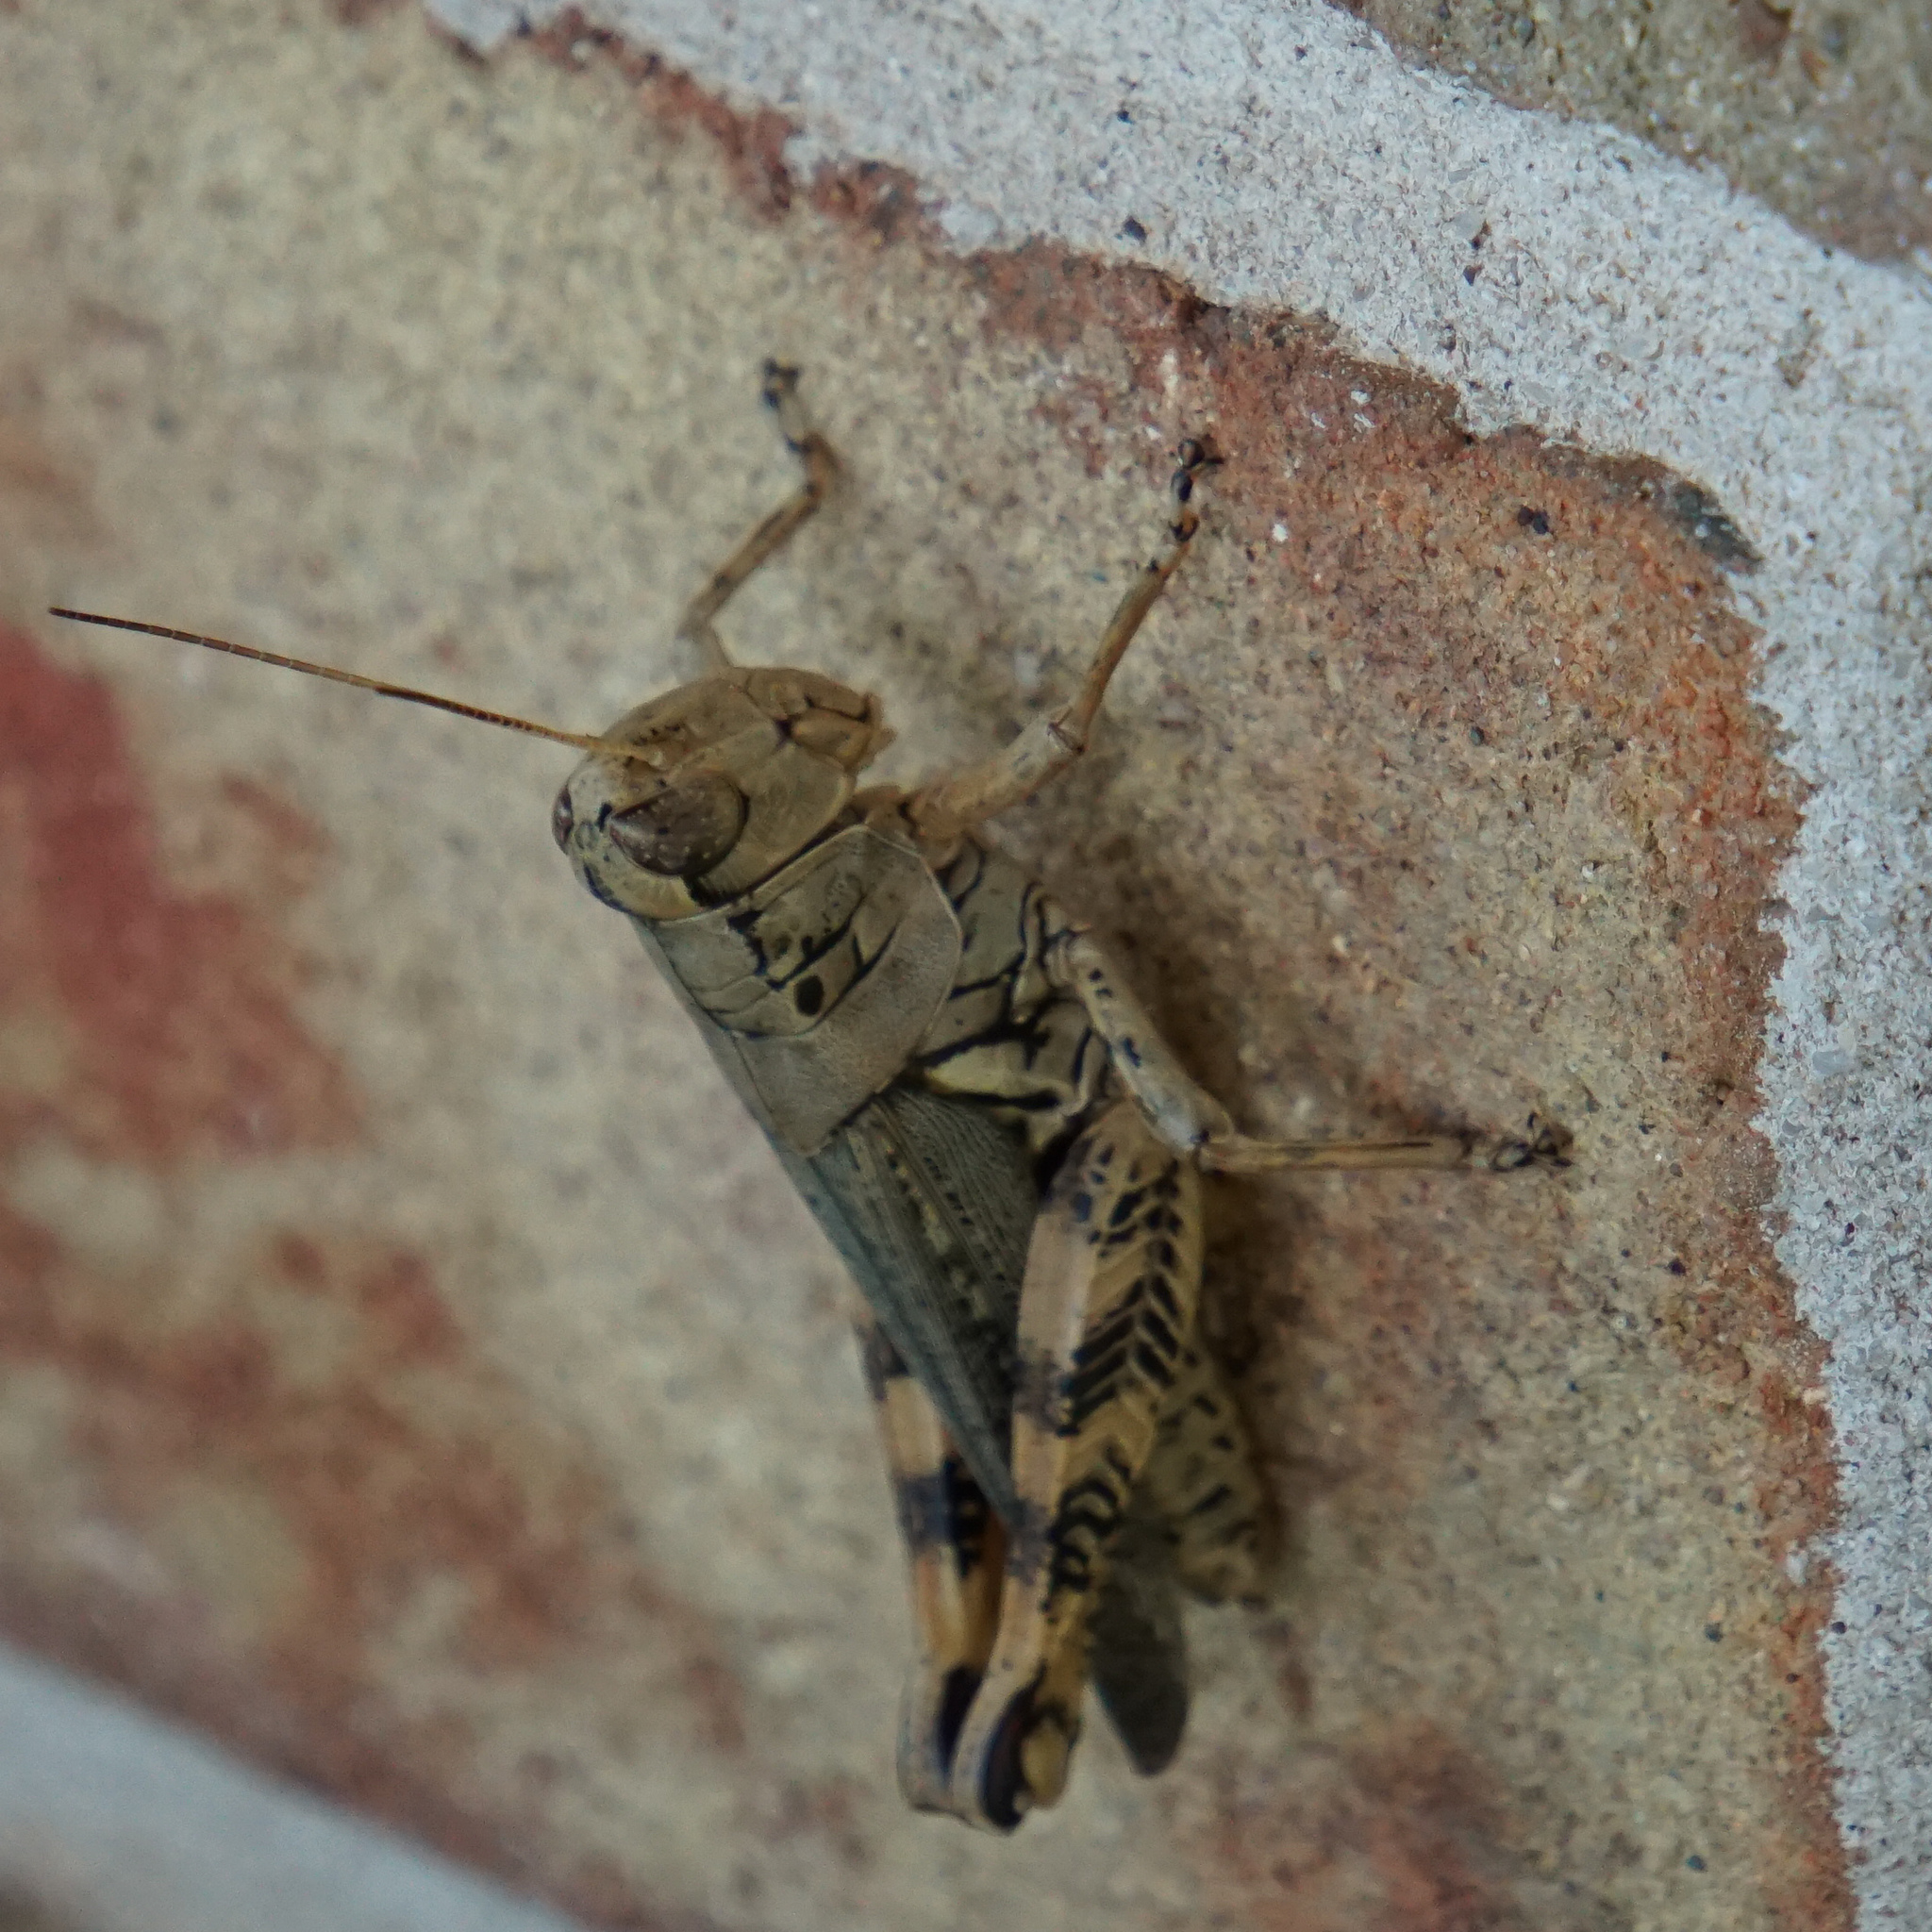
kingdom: Animalia
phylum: Arthropoda
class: Insecta
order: Orthoptera
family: Acrididae
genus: Melanoplus
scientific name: Melanoplus ponderosus
